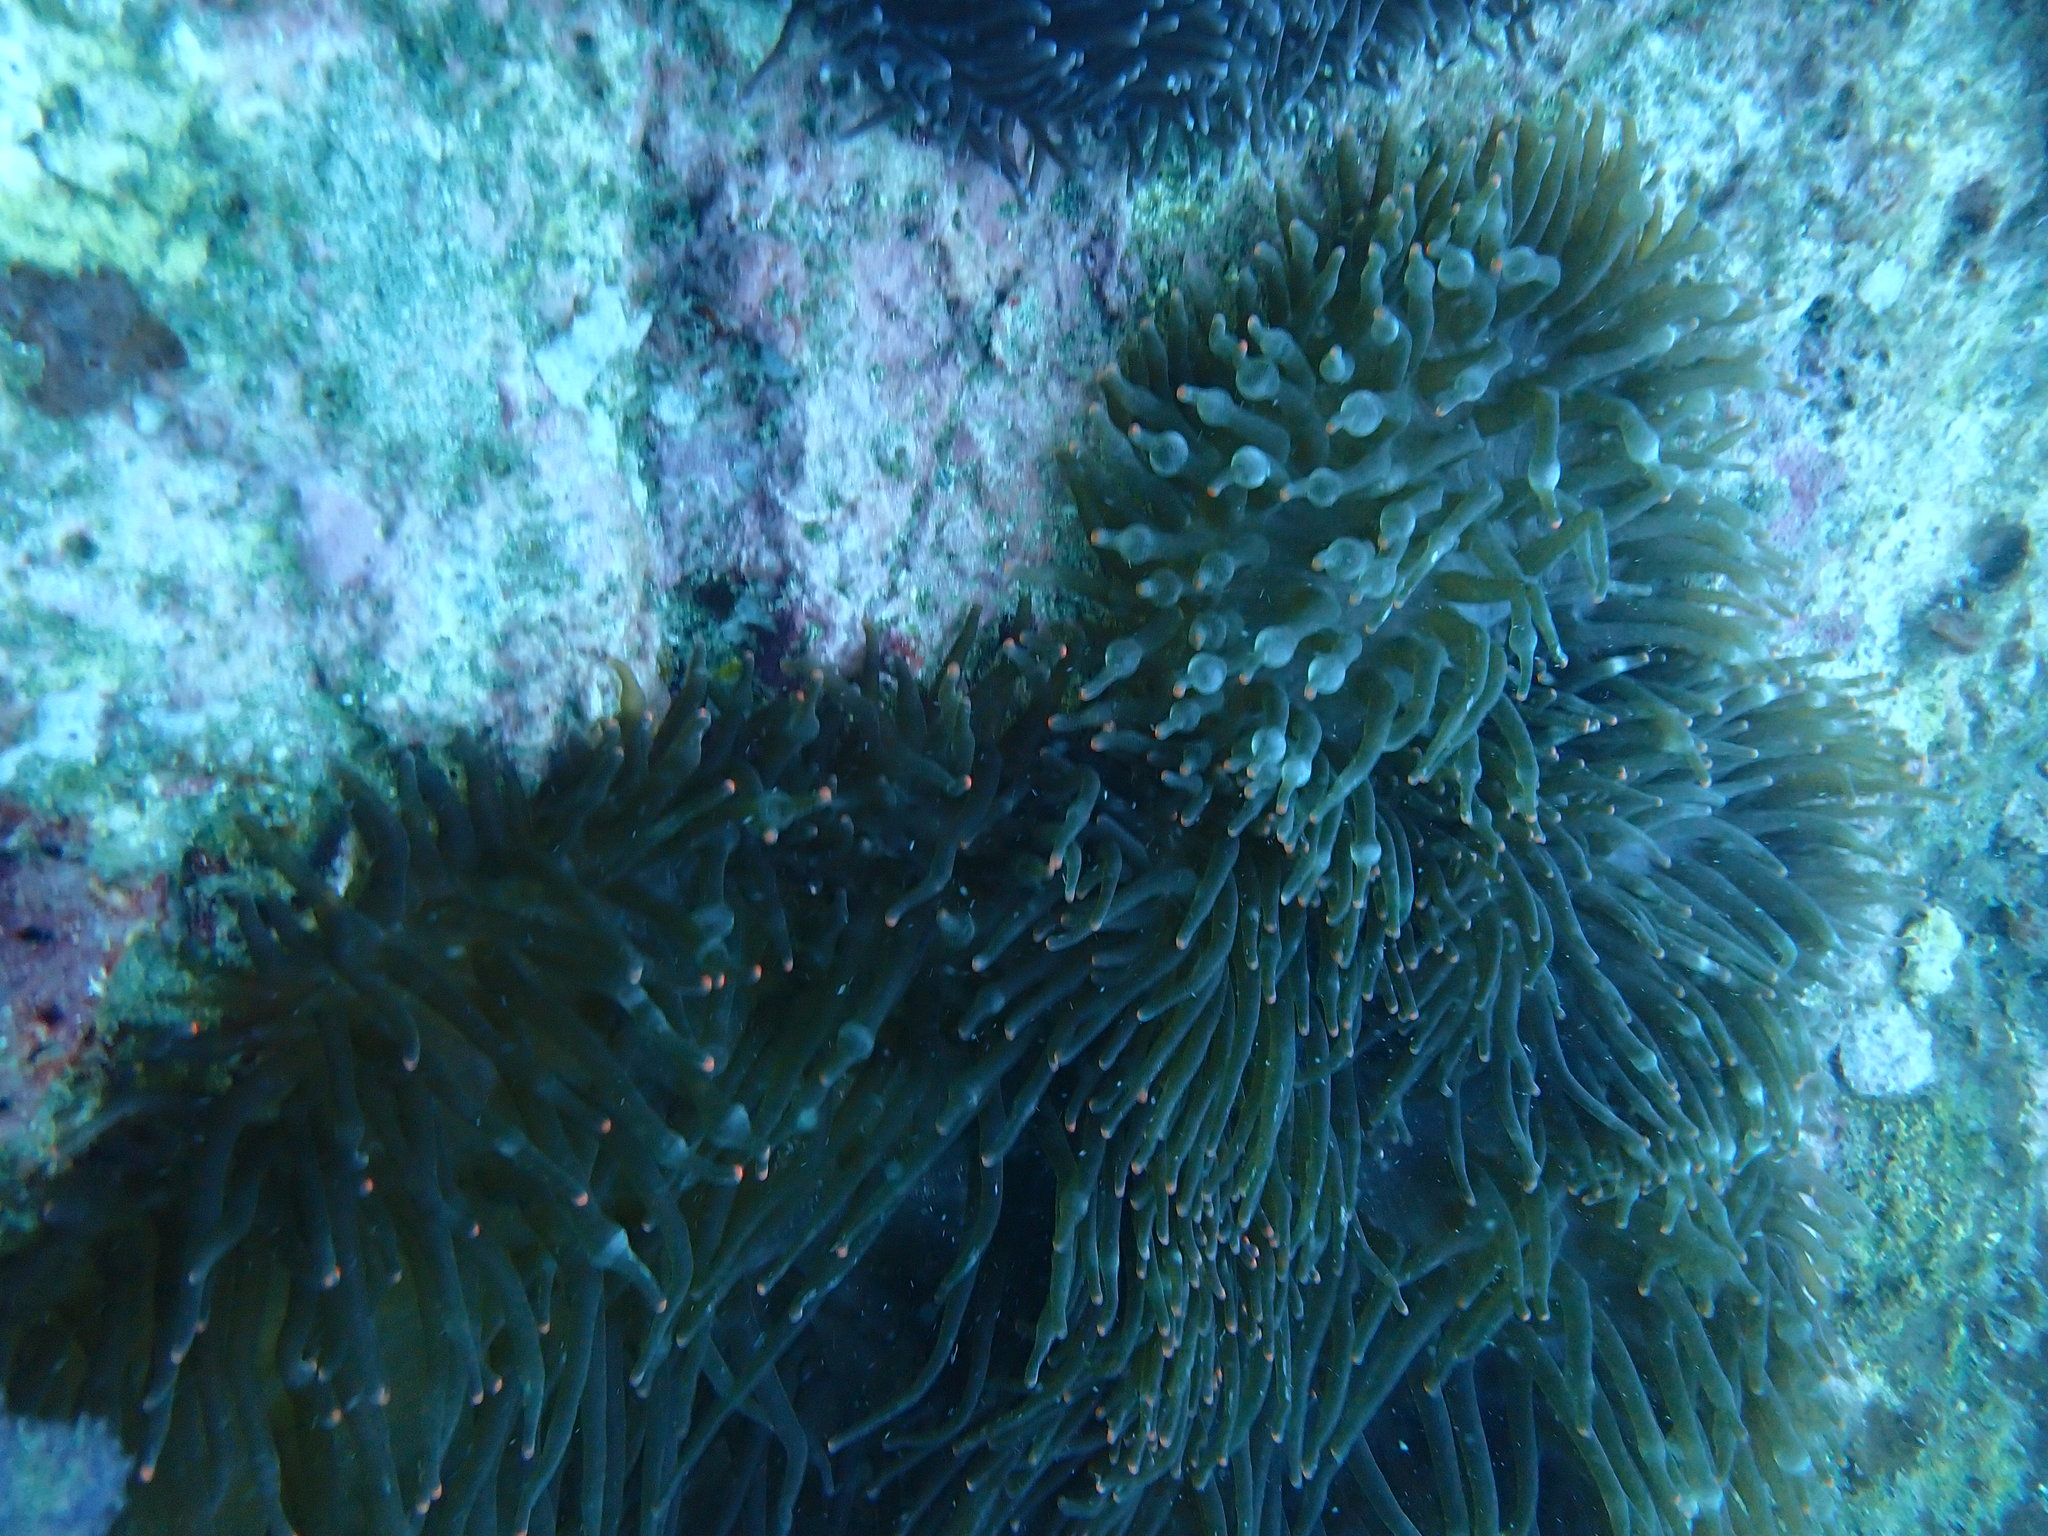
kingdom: Animalia
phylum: Cnidaria
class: Anthozoa
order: Actiniaria
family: Actiniidae
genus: Entacmaea
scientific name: Entacmaea quadricolor
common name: Bulb tentacle sea anemone
